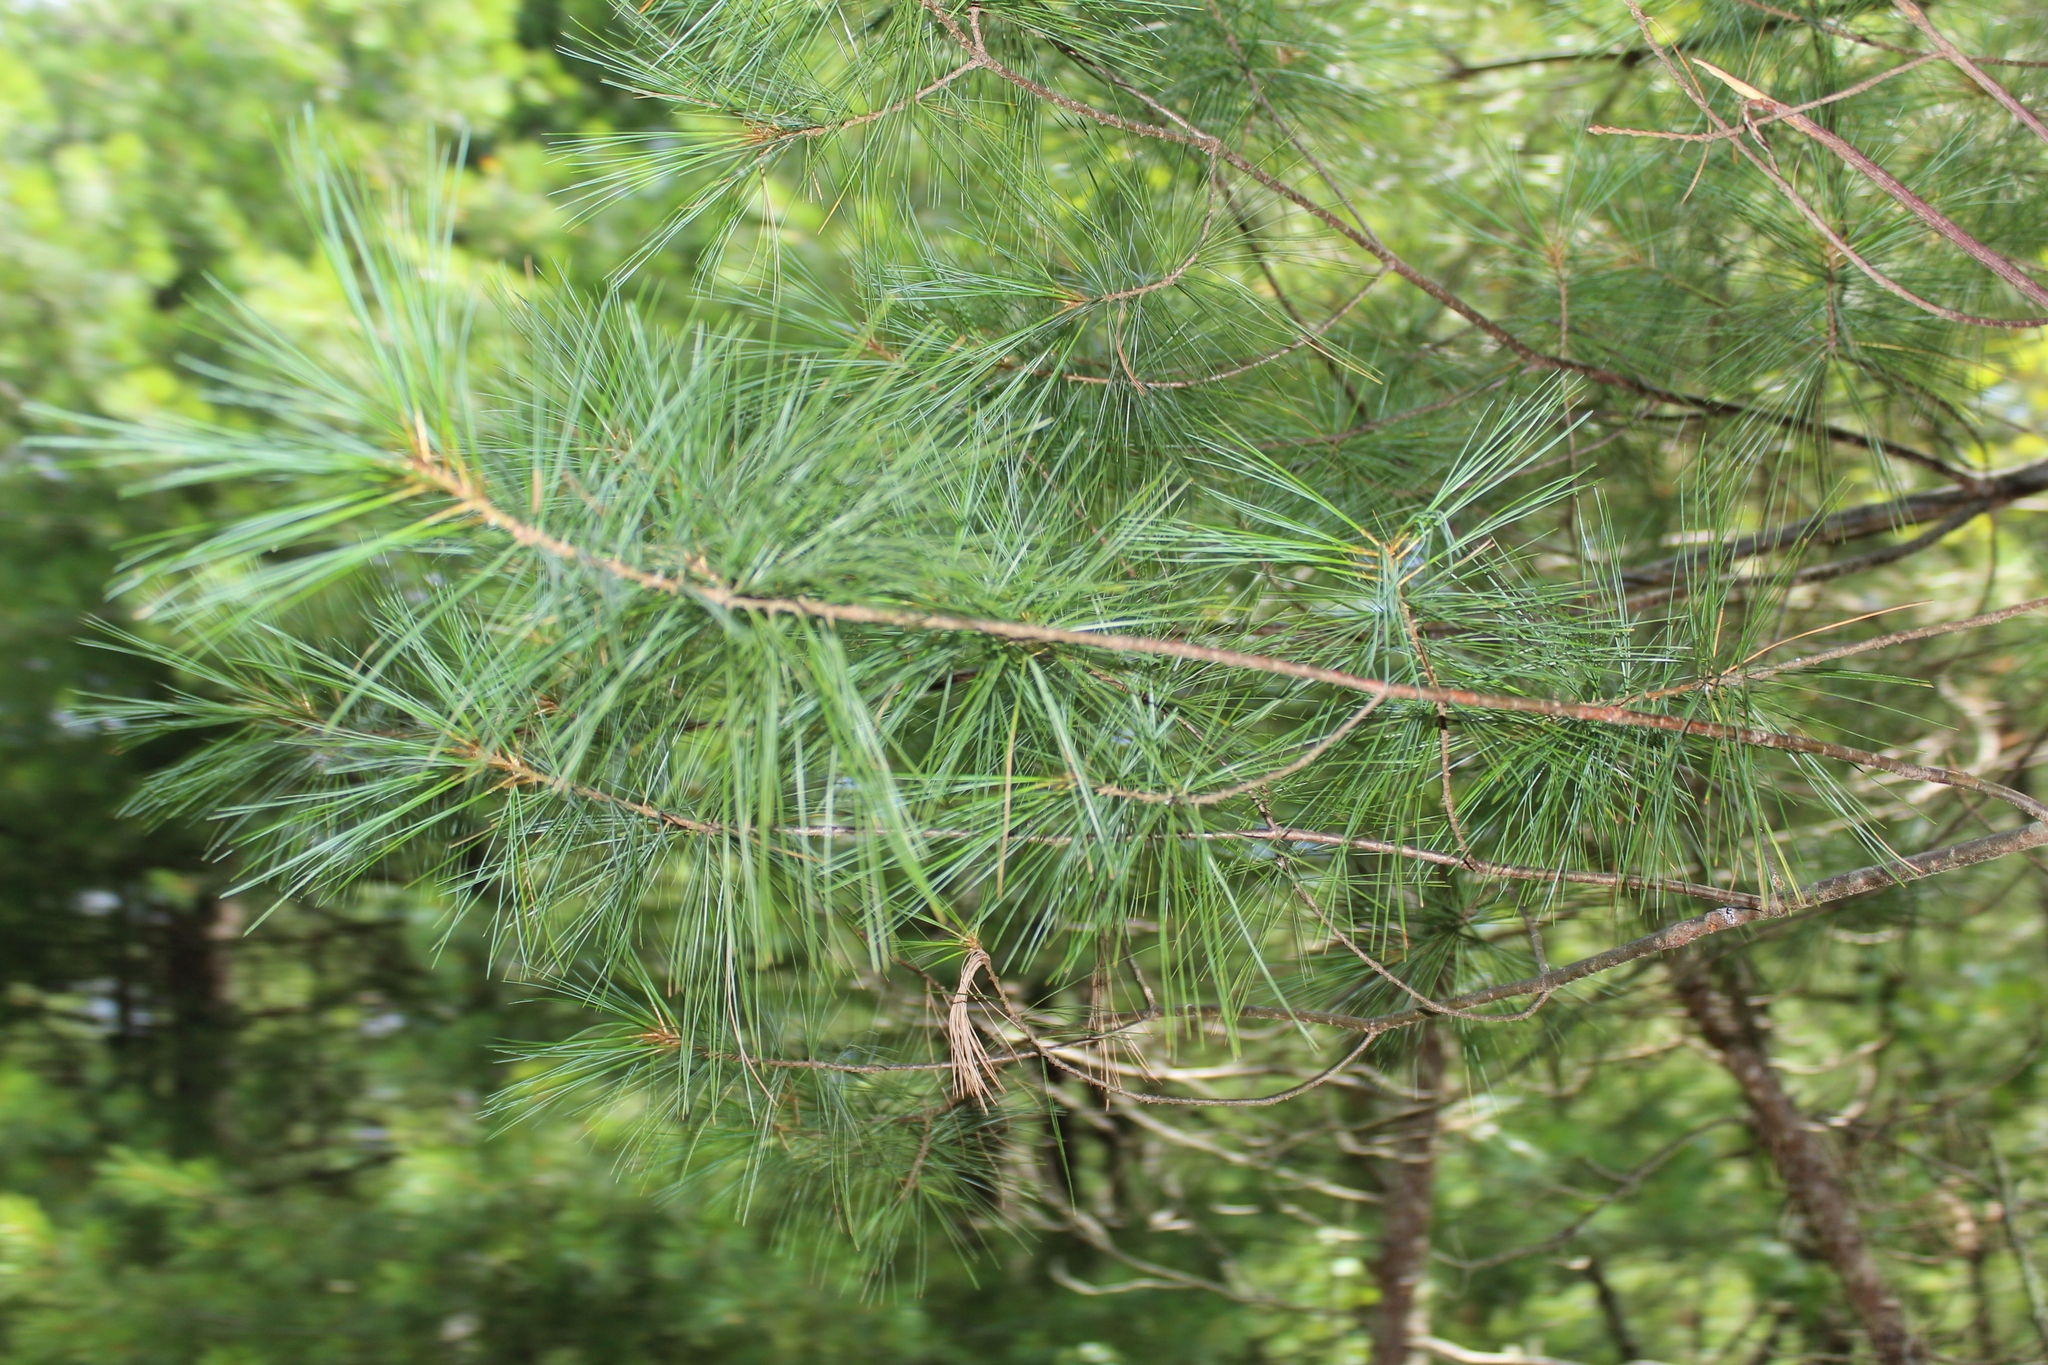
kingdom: Plantae
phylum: Tracheophyta
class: Pinopsida
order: Pinales
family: Pinaceae
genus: Pinus
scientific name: Pinus strobus
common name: Weymouth pine
